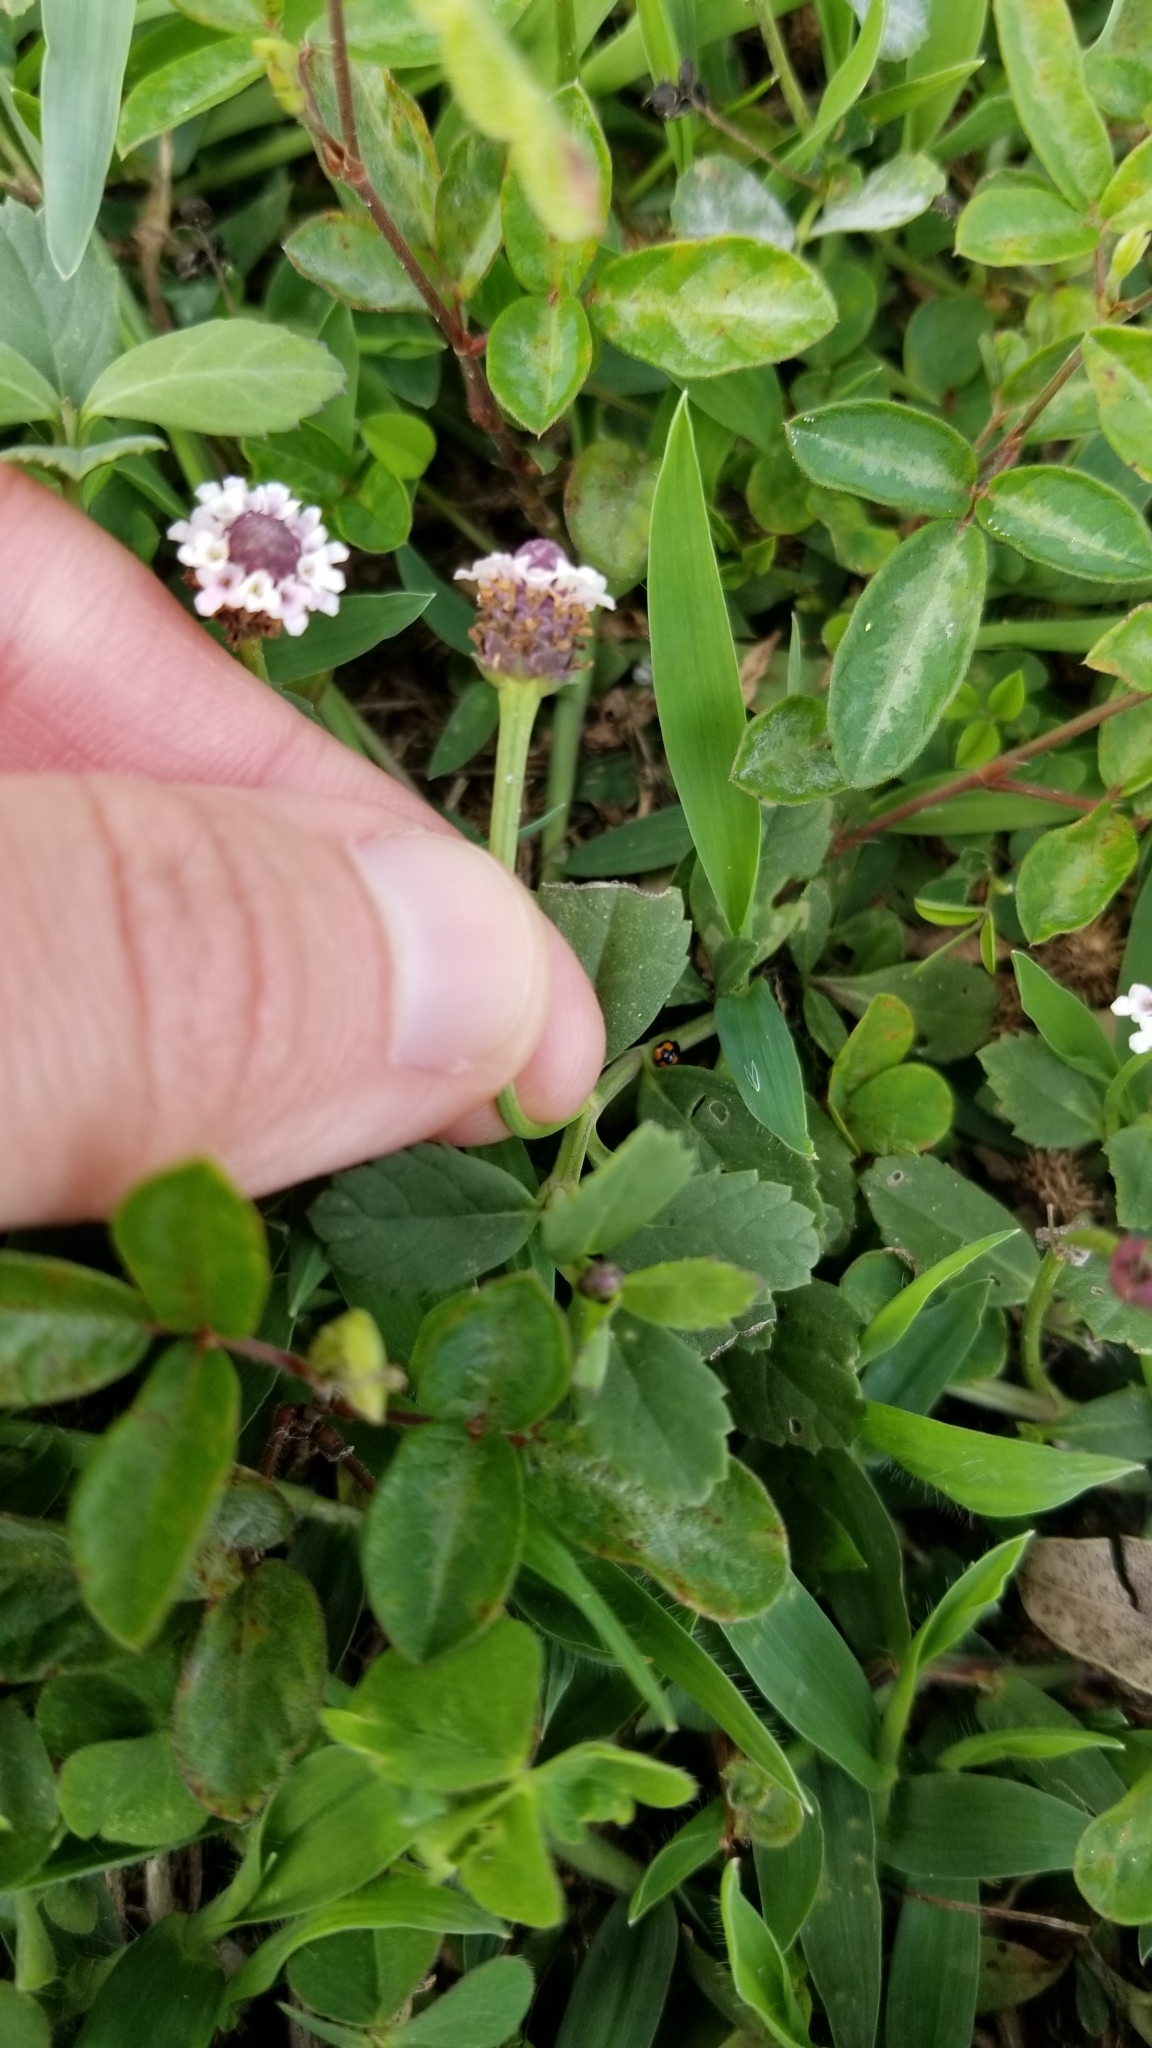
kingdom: Plantae
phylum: Tracheophyta
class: Magnoliopsida
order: Lamiales
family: Verbenaceae
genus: Phyla
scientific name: Phyla nodiflora
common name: Frogfruit
